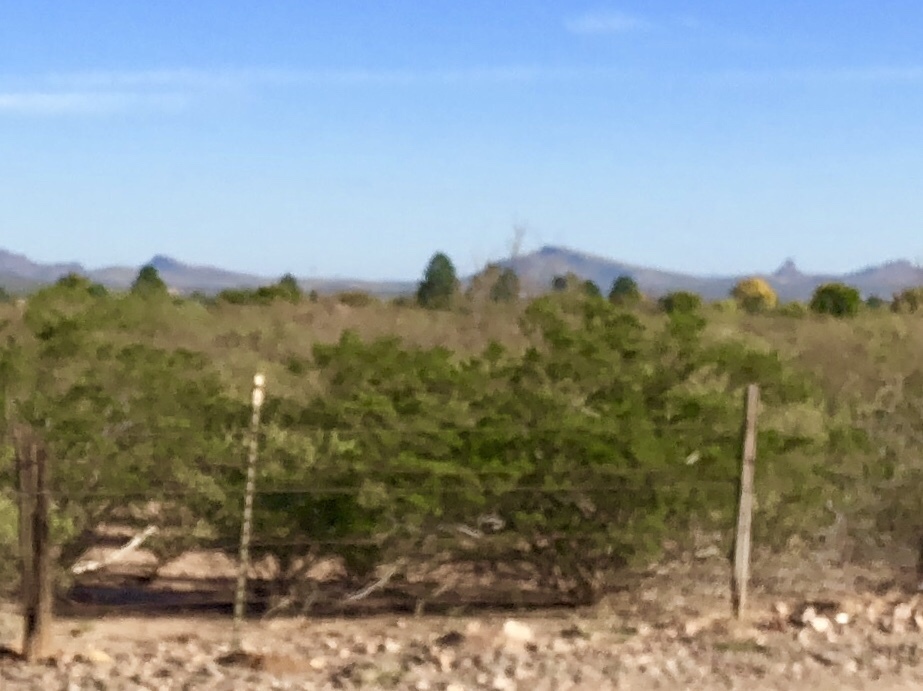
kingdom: Plantae
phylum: Tracheophyta
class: Magnoliopsida
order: Zygophyllales
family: Zygophyllaceae
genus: Larrea
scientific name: Larrea tridentata
